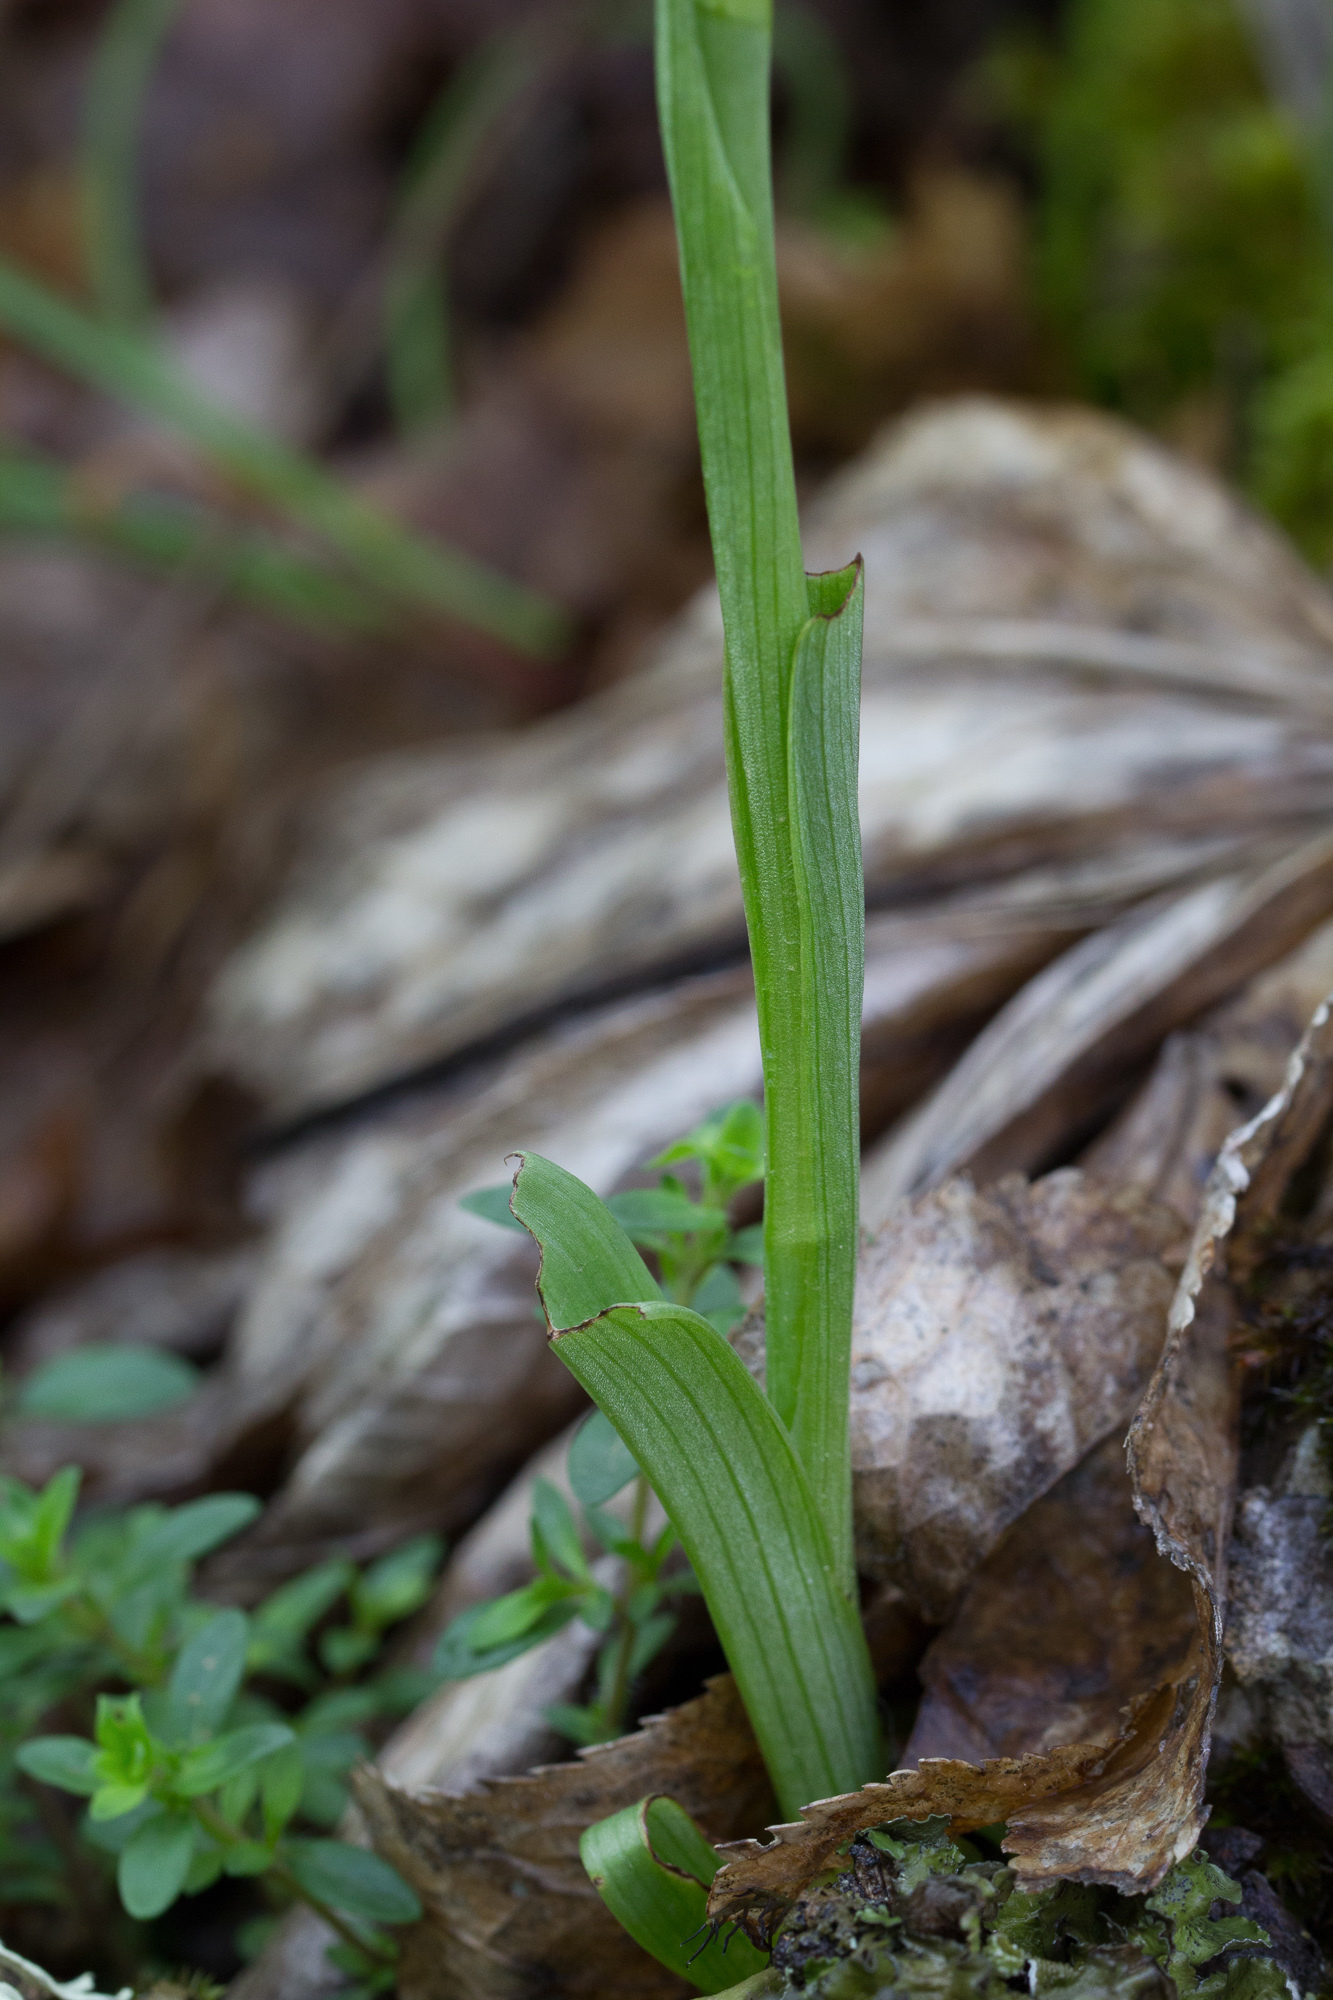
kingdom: Plantae
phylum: Tracheophyta
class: Liliopsida
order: Asparagales
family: Orchidaceae
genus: Ophrys
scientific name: Ophrys sphegodes
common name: Early spider-orchid
